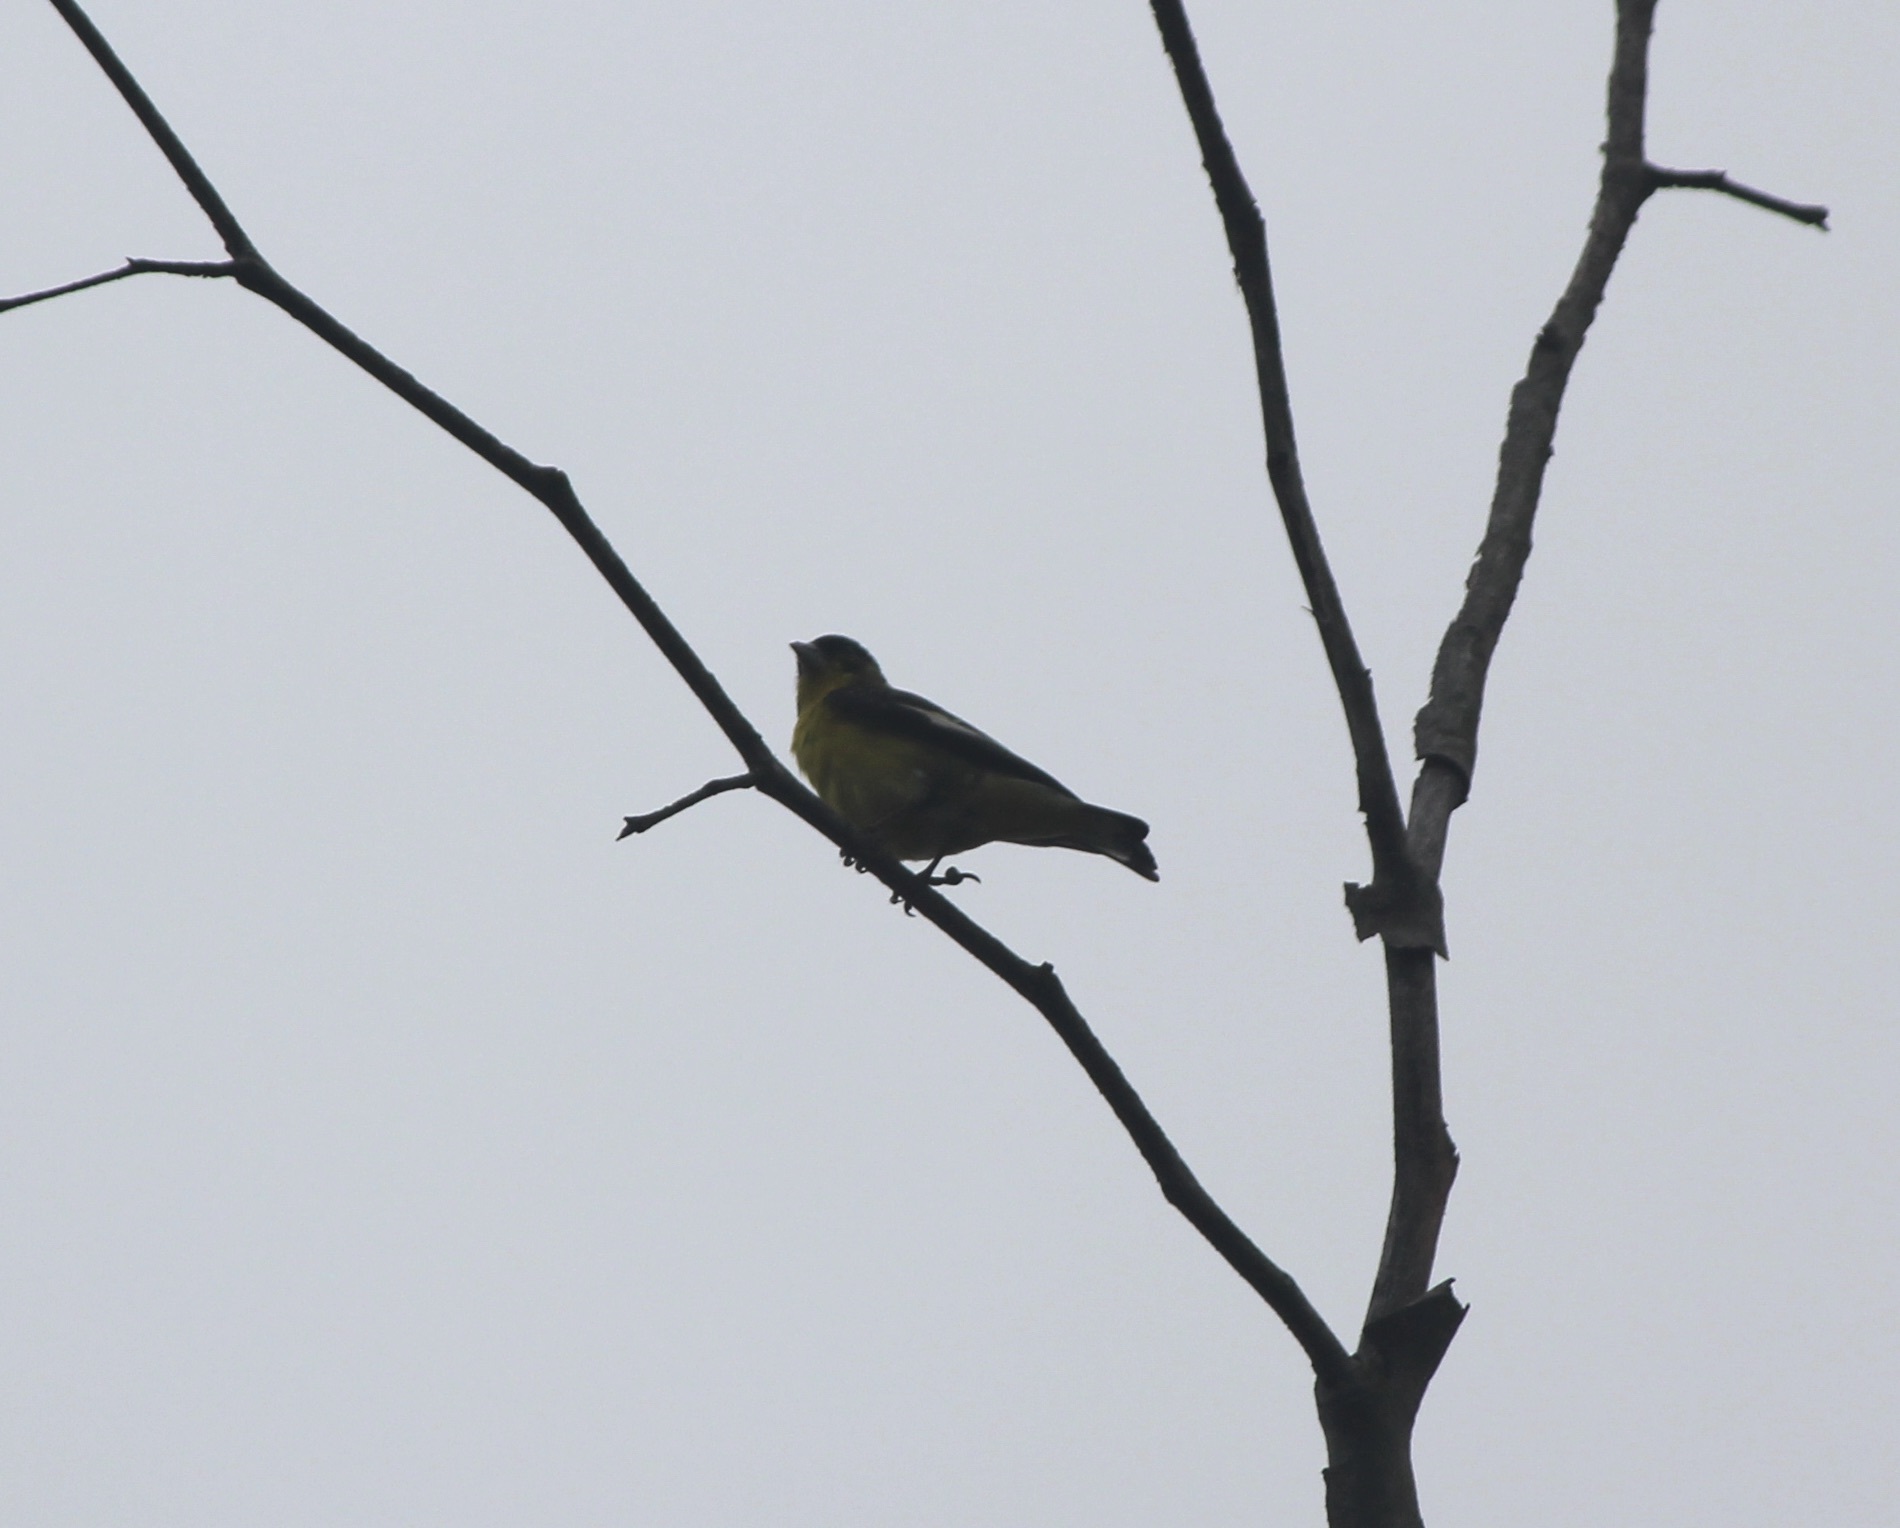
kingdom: Animalia
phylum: Chordata
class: Aves
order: Passeriformes
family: Fringillidae
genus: Spinus
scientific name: Spinus psaltria
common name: Lesser goldfinch
